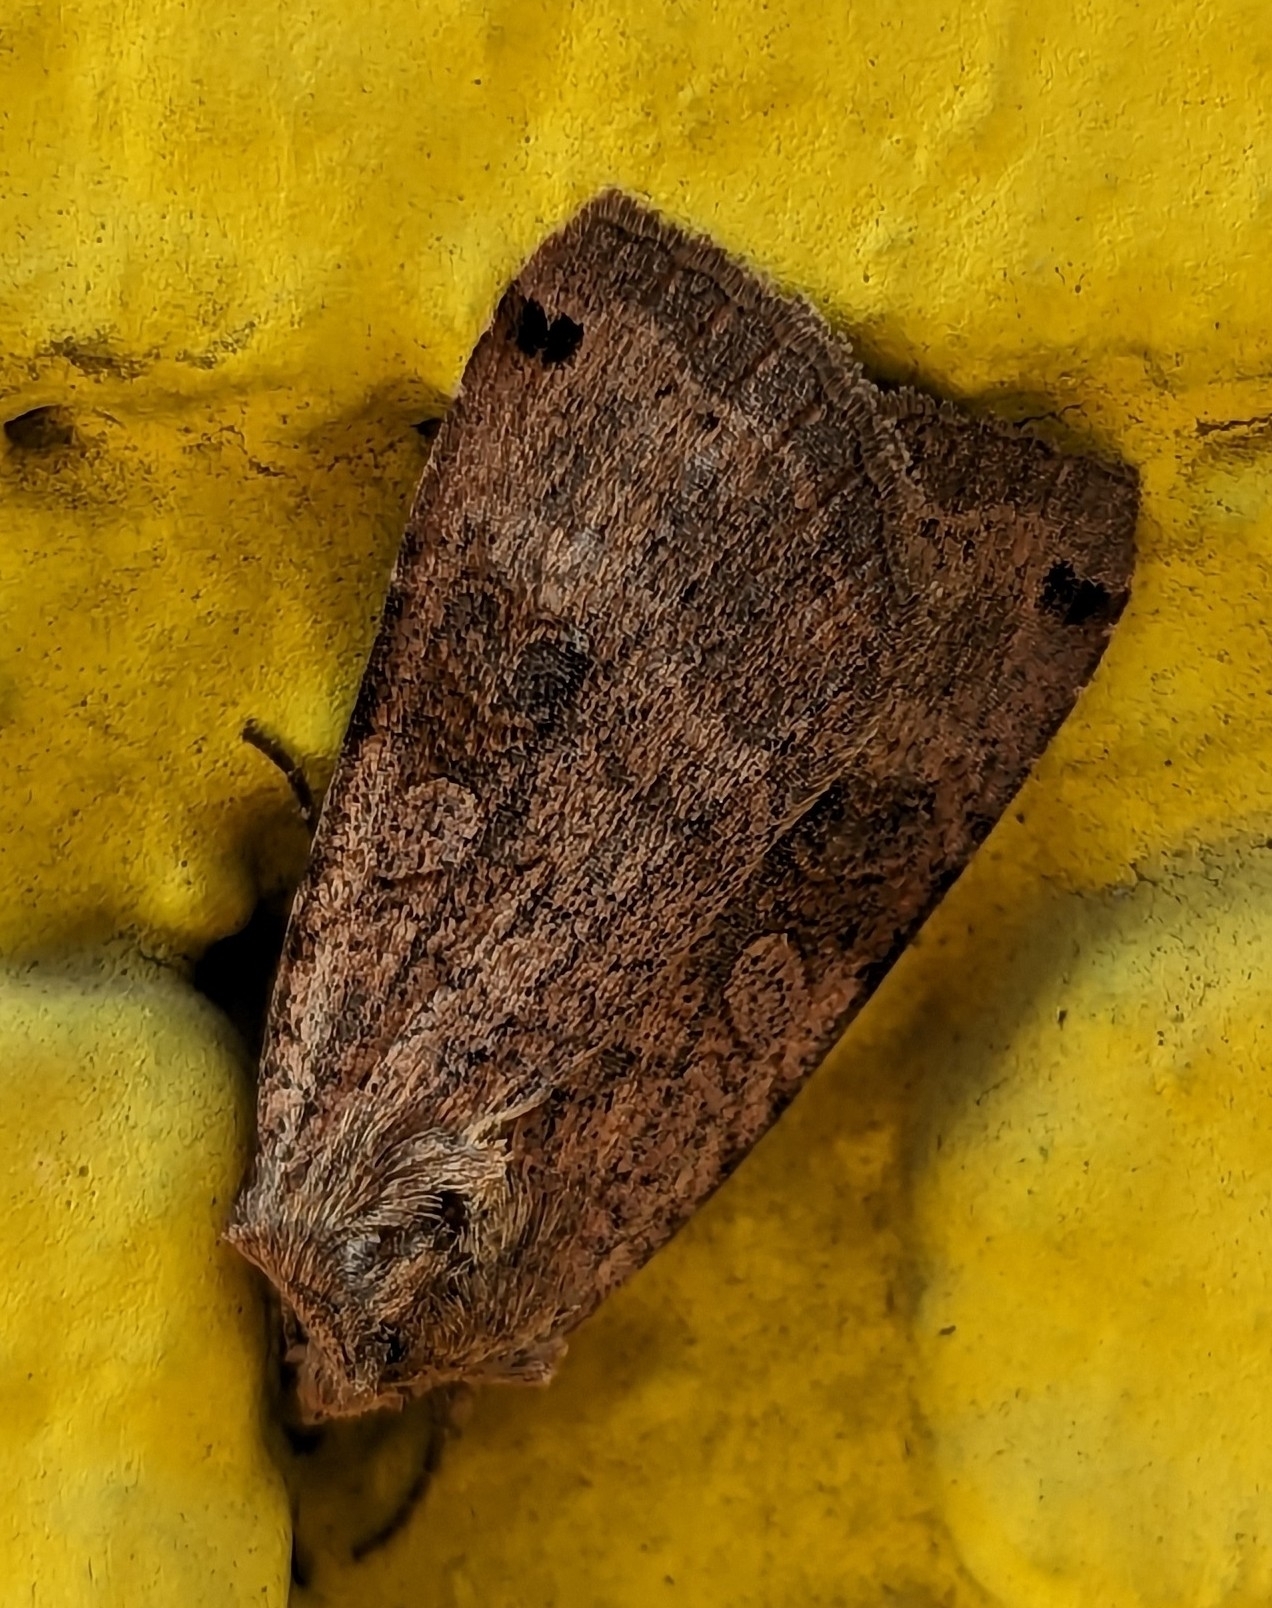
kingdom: Animalia
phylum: Arthropoda
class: Insecta
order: Lepidoptera
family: Noctuidae
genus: Xestia
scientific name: Xestia smithii
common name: Smith's dart
